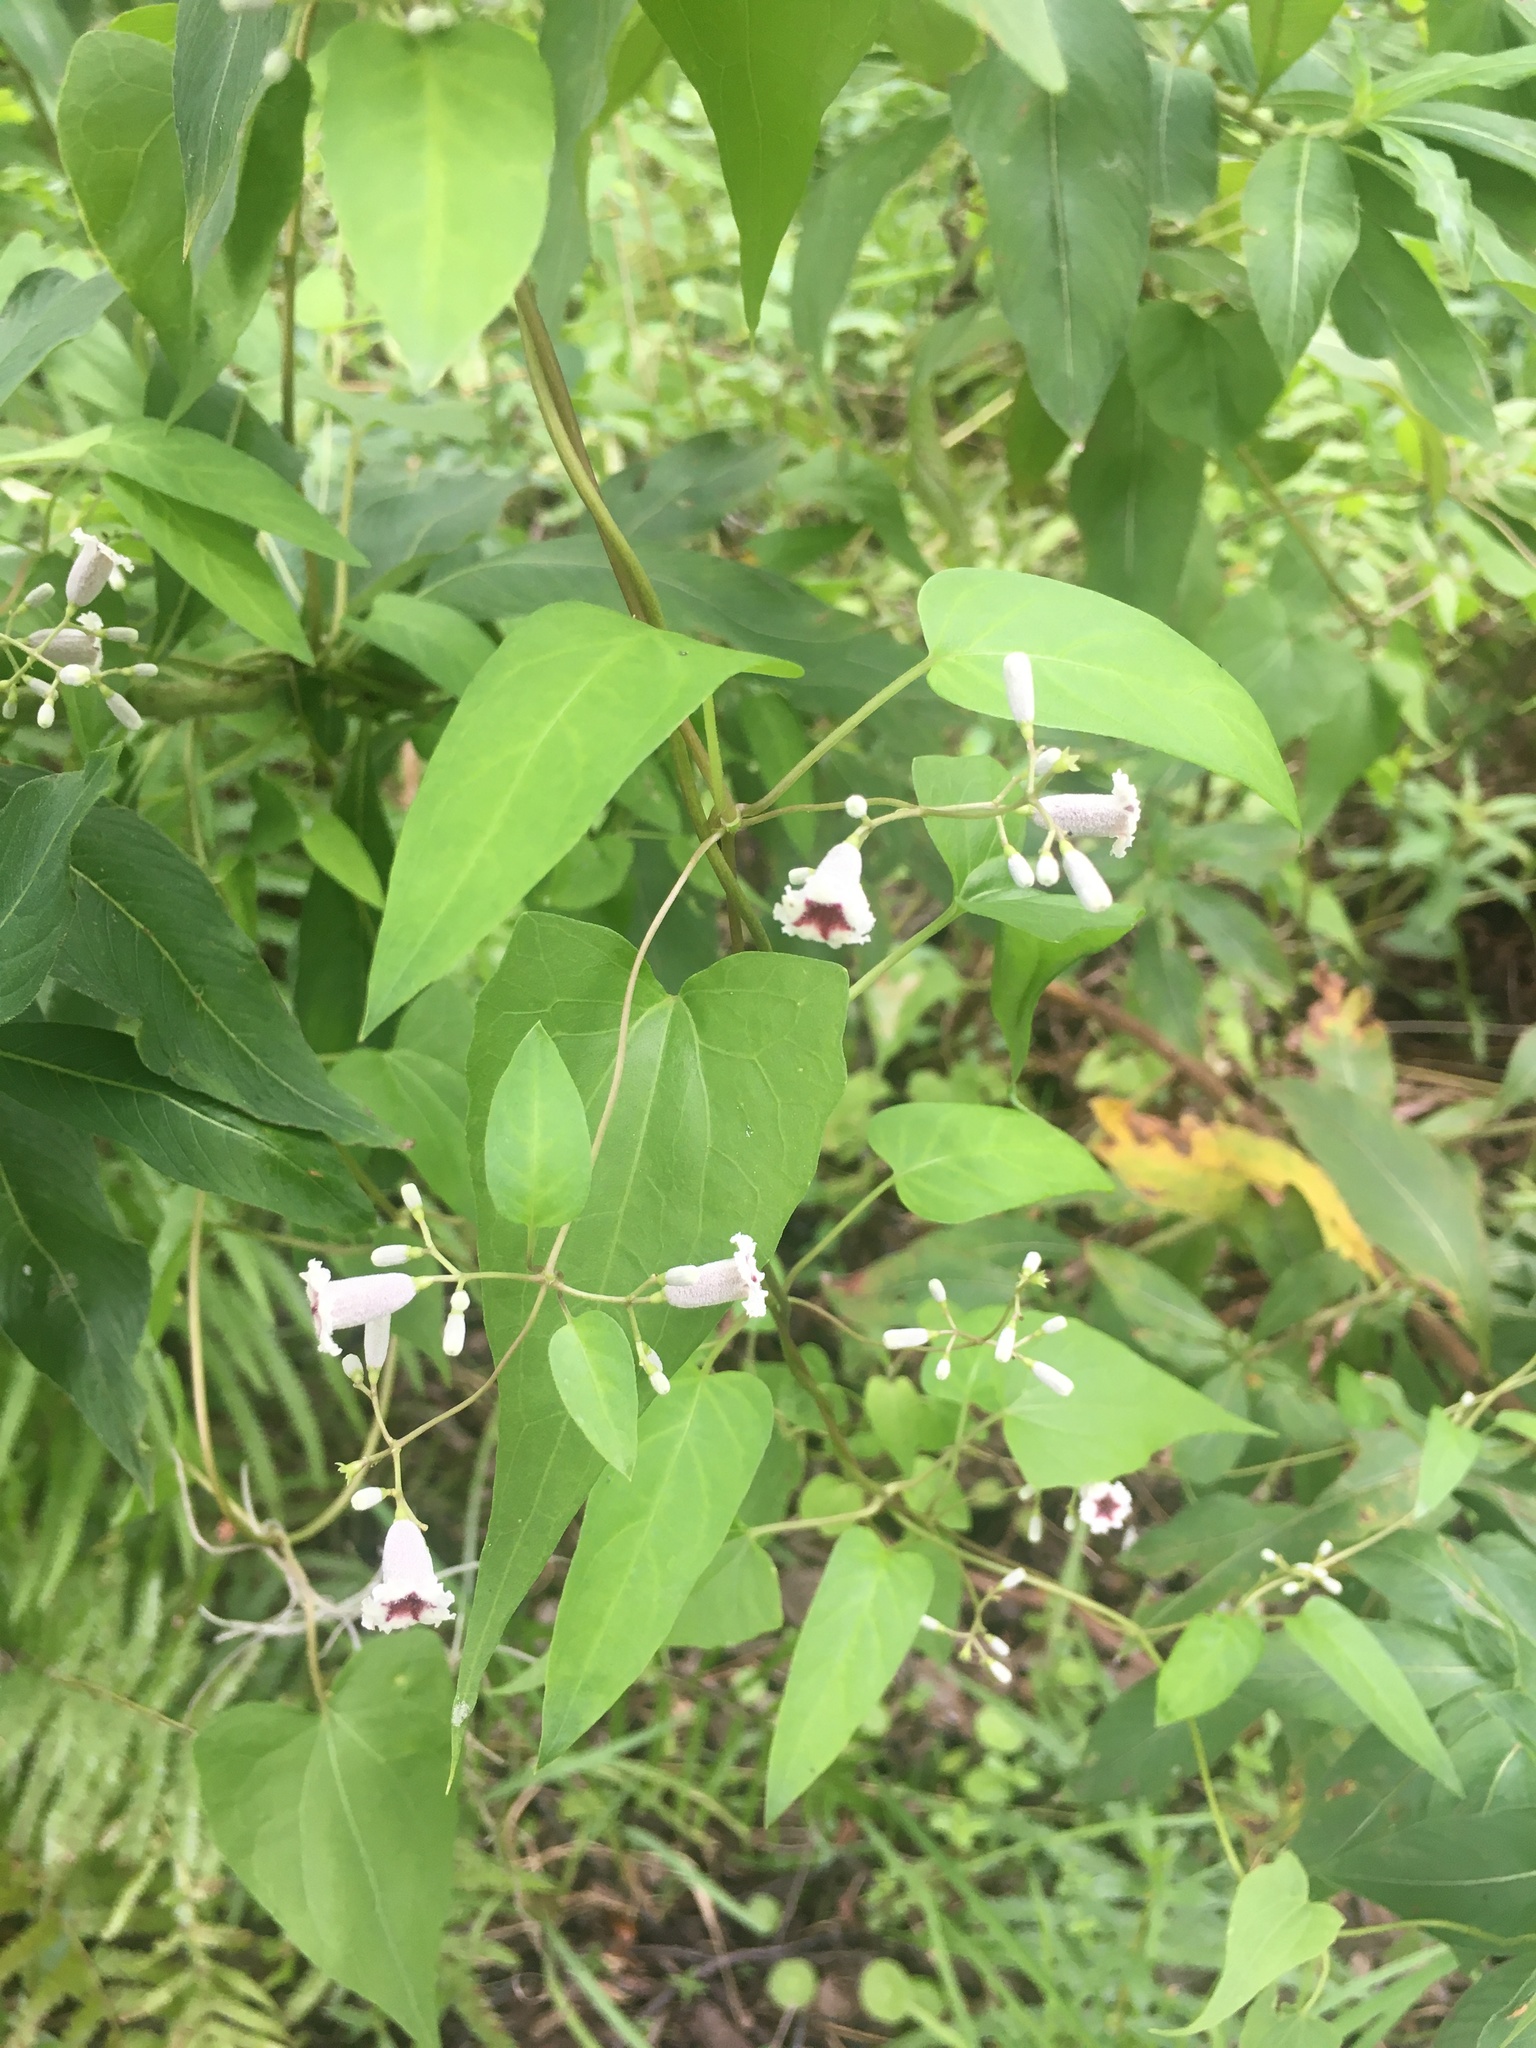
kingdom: Plantae
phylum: Tracheophyta
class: Magnoliopsida
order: Gentianales
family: Rubiaceae
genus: Paederia
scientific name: Paederia foetida
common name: Stinkvine
